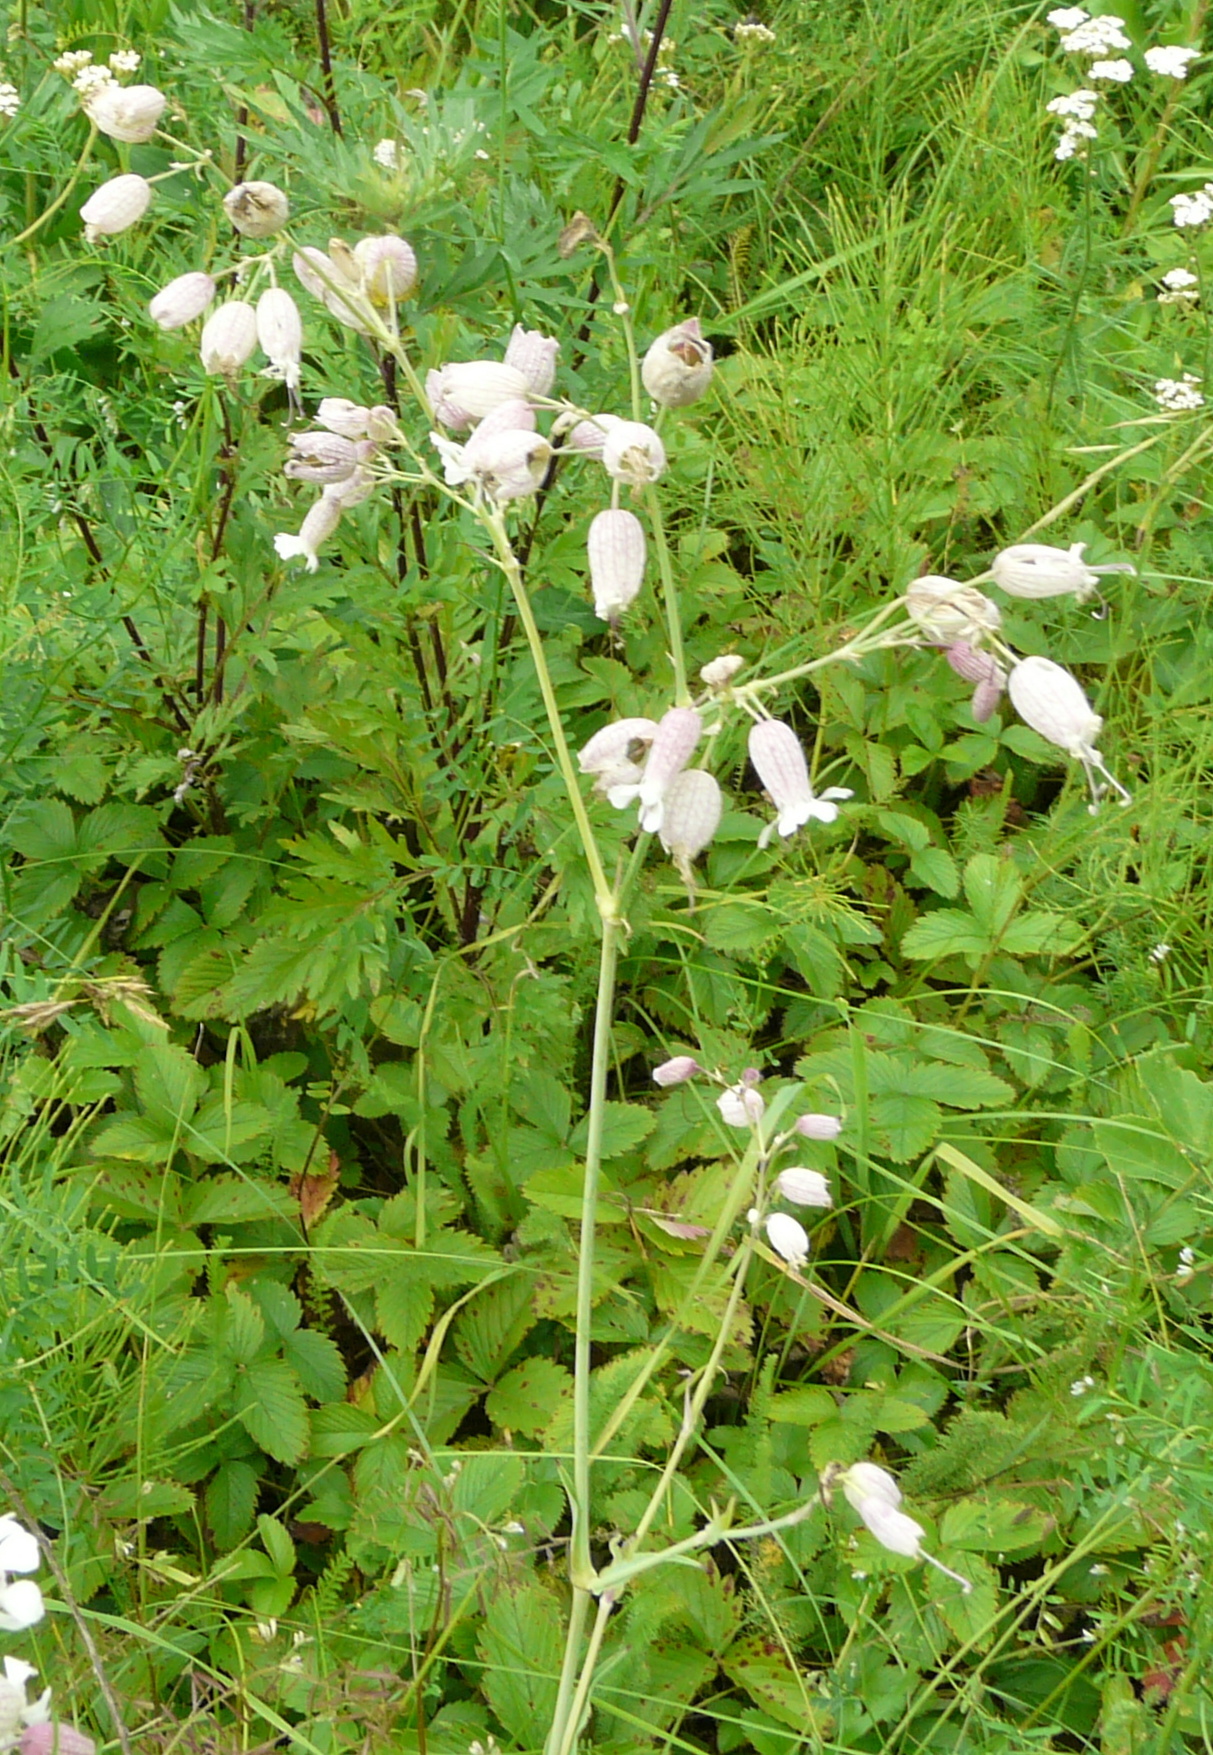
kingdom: Plantae
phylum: Tracheophyta
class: Magnoliopsida
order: Caryophyllales
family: Caryophyllaceae
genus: Silene
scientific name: Silene vulgaris
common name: Bladder campion
